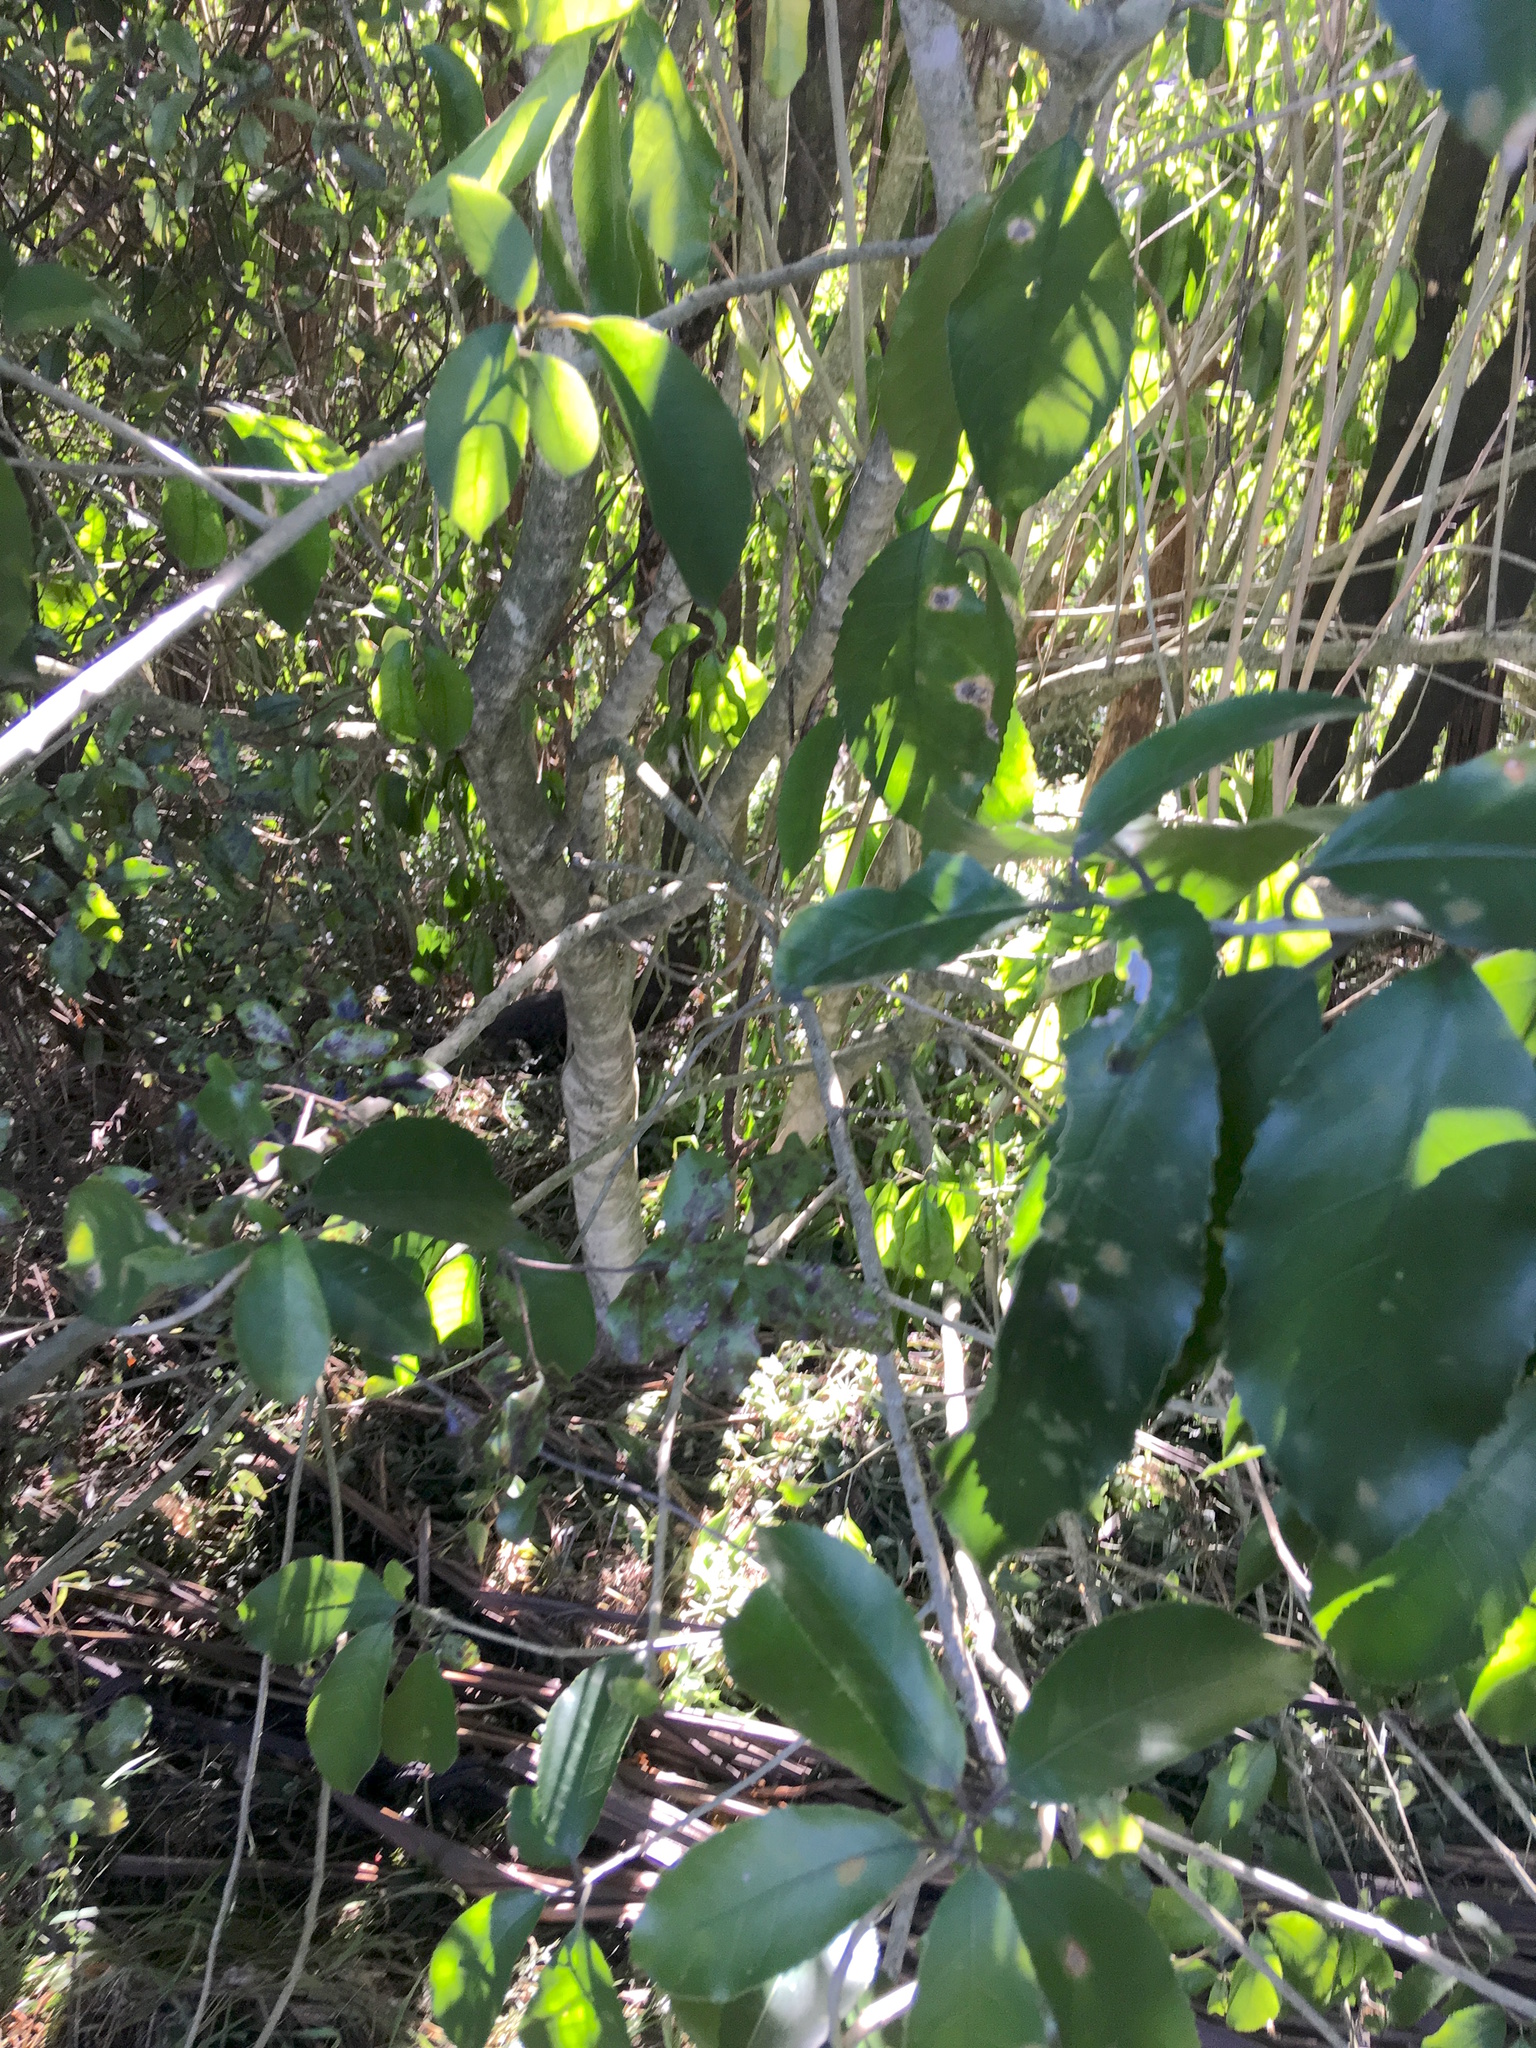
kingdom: Plantae
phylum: Tracheophyta
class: Magnoliopsida
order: Malpighiales
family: Violaceae
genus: Melicytus
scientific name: Melicytus ramiflorus
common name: Mahoe
